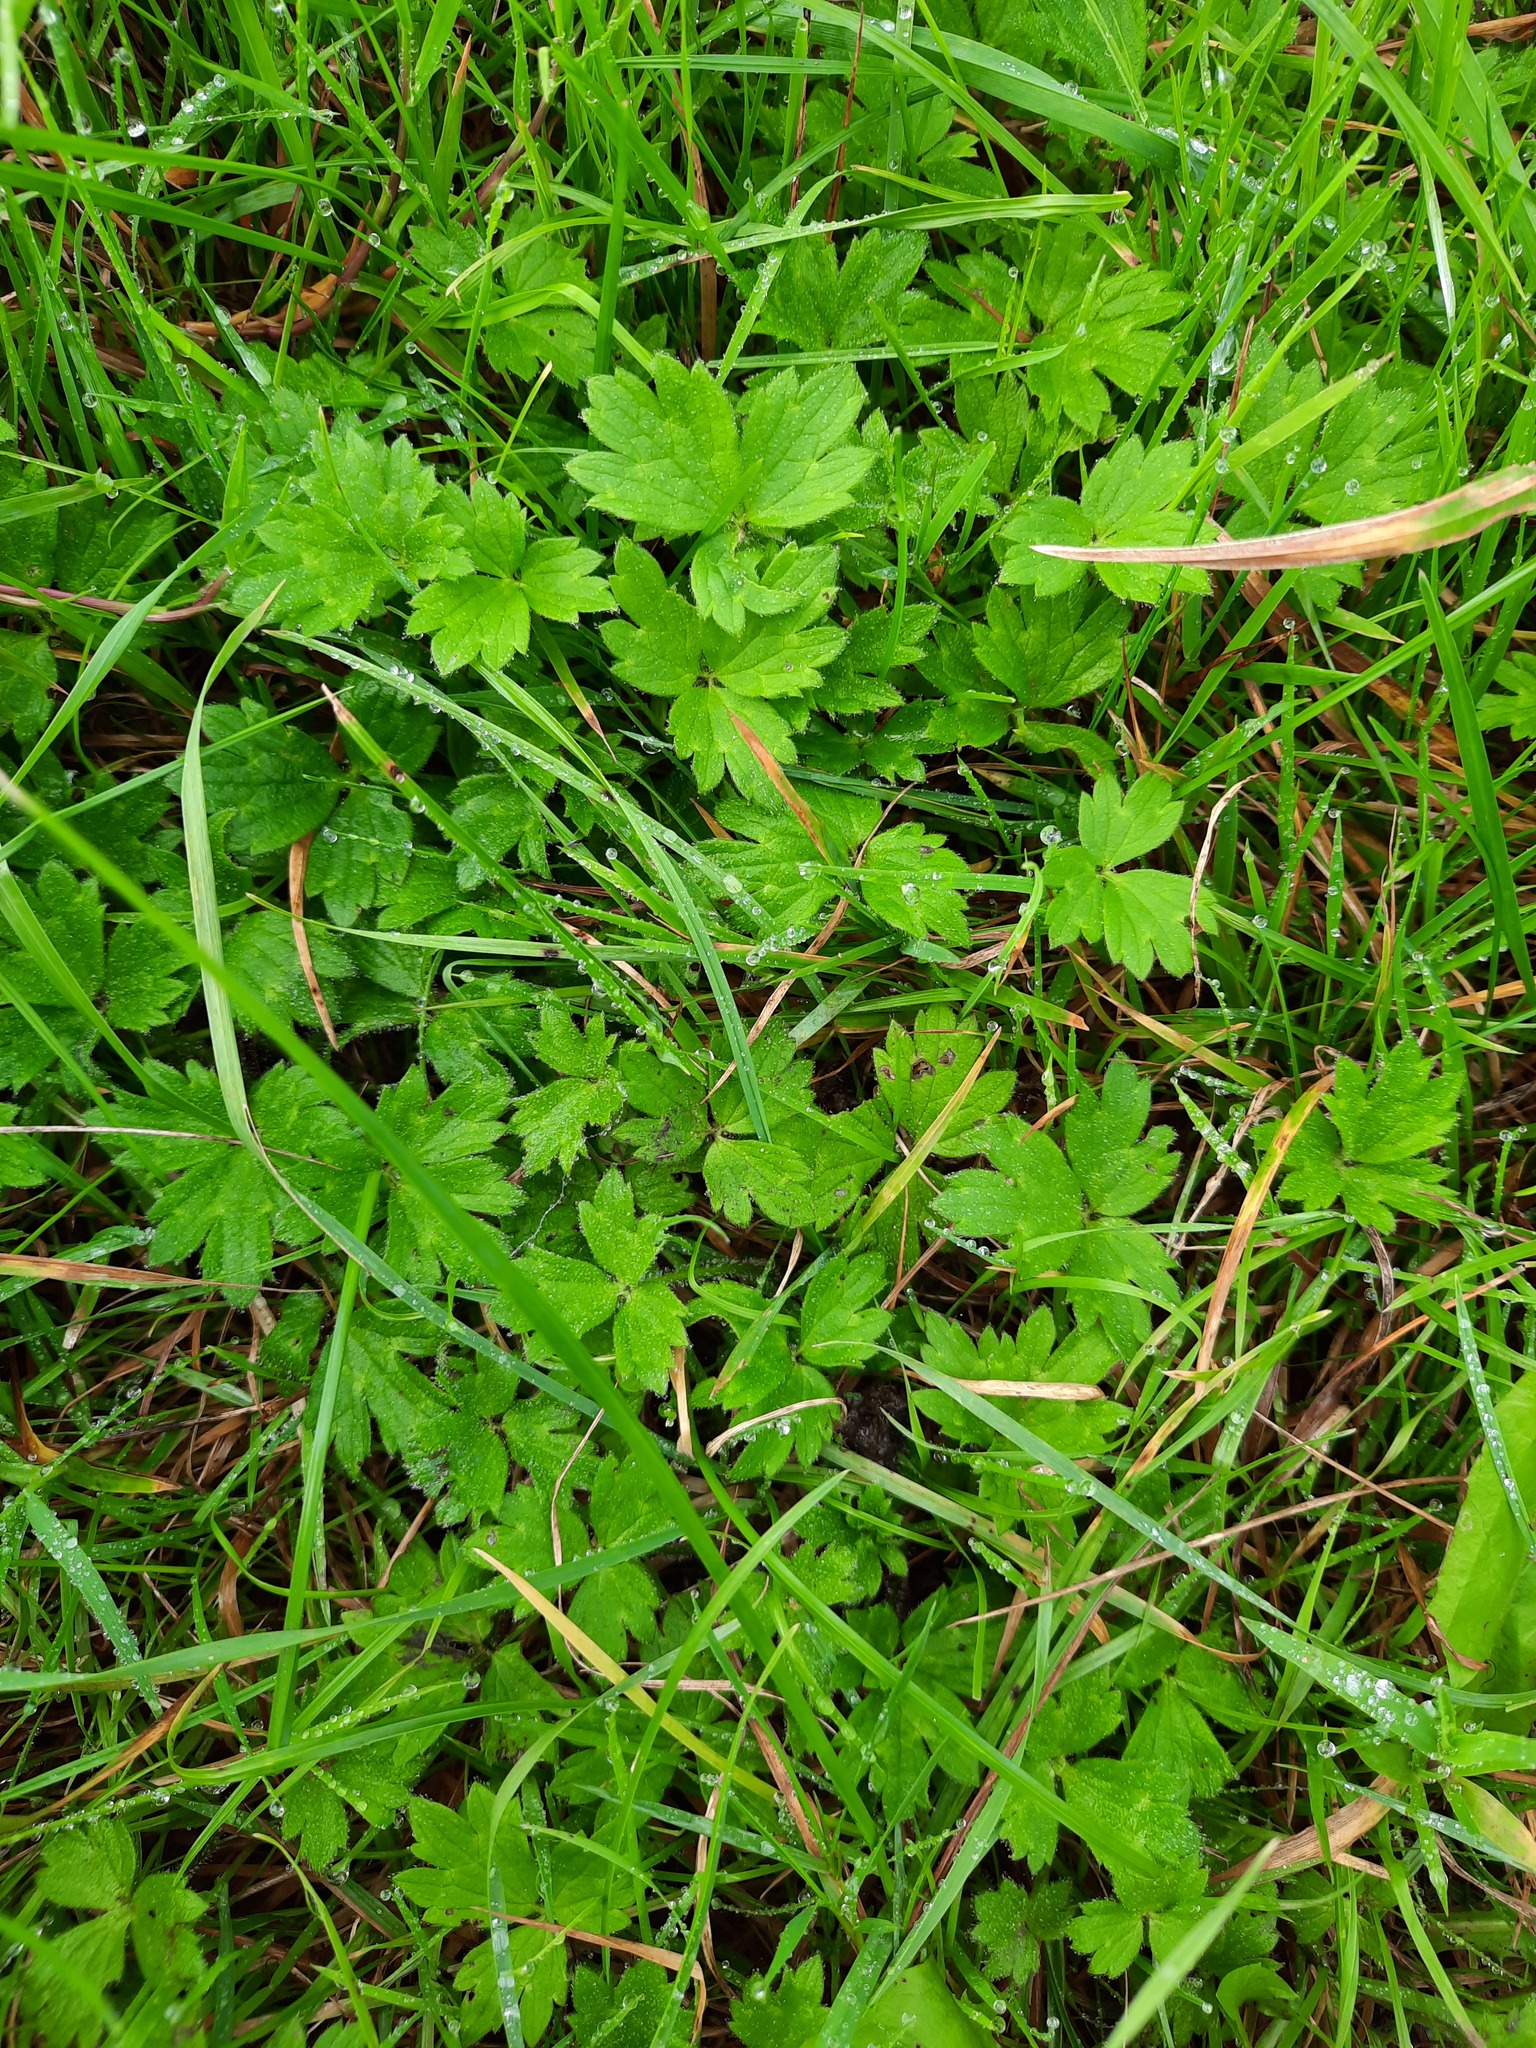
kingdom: Plantae
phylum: Tracheophyta
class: Magnoliopsida
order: Ranunculales
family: Ranunculaceae
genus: Ranunculus
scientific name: Ranunculus repens
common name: Creeping buttercup
